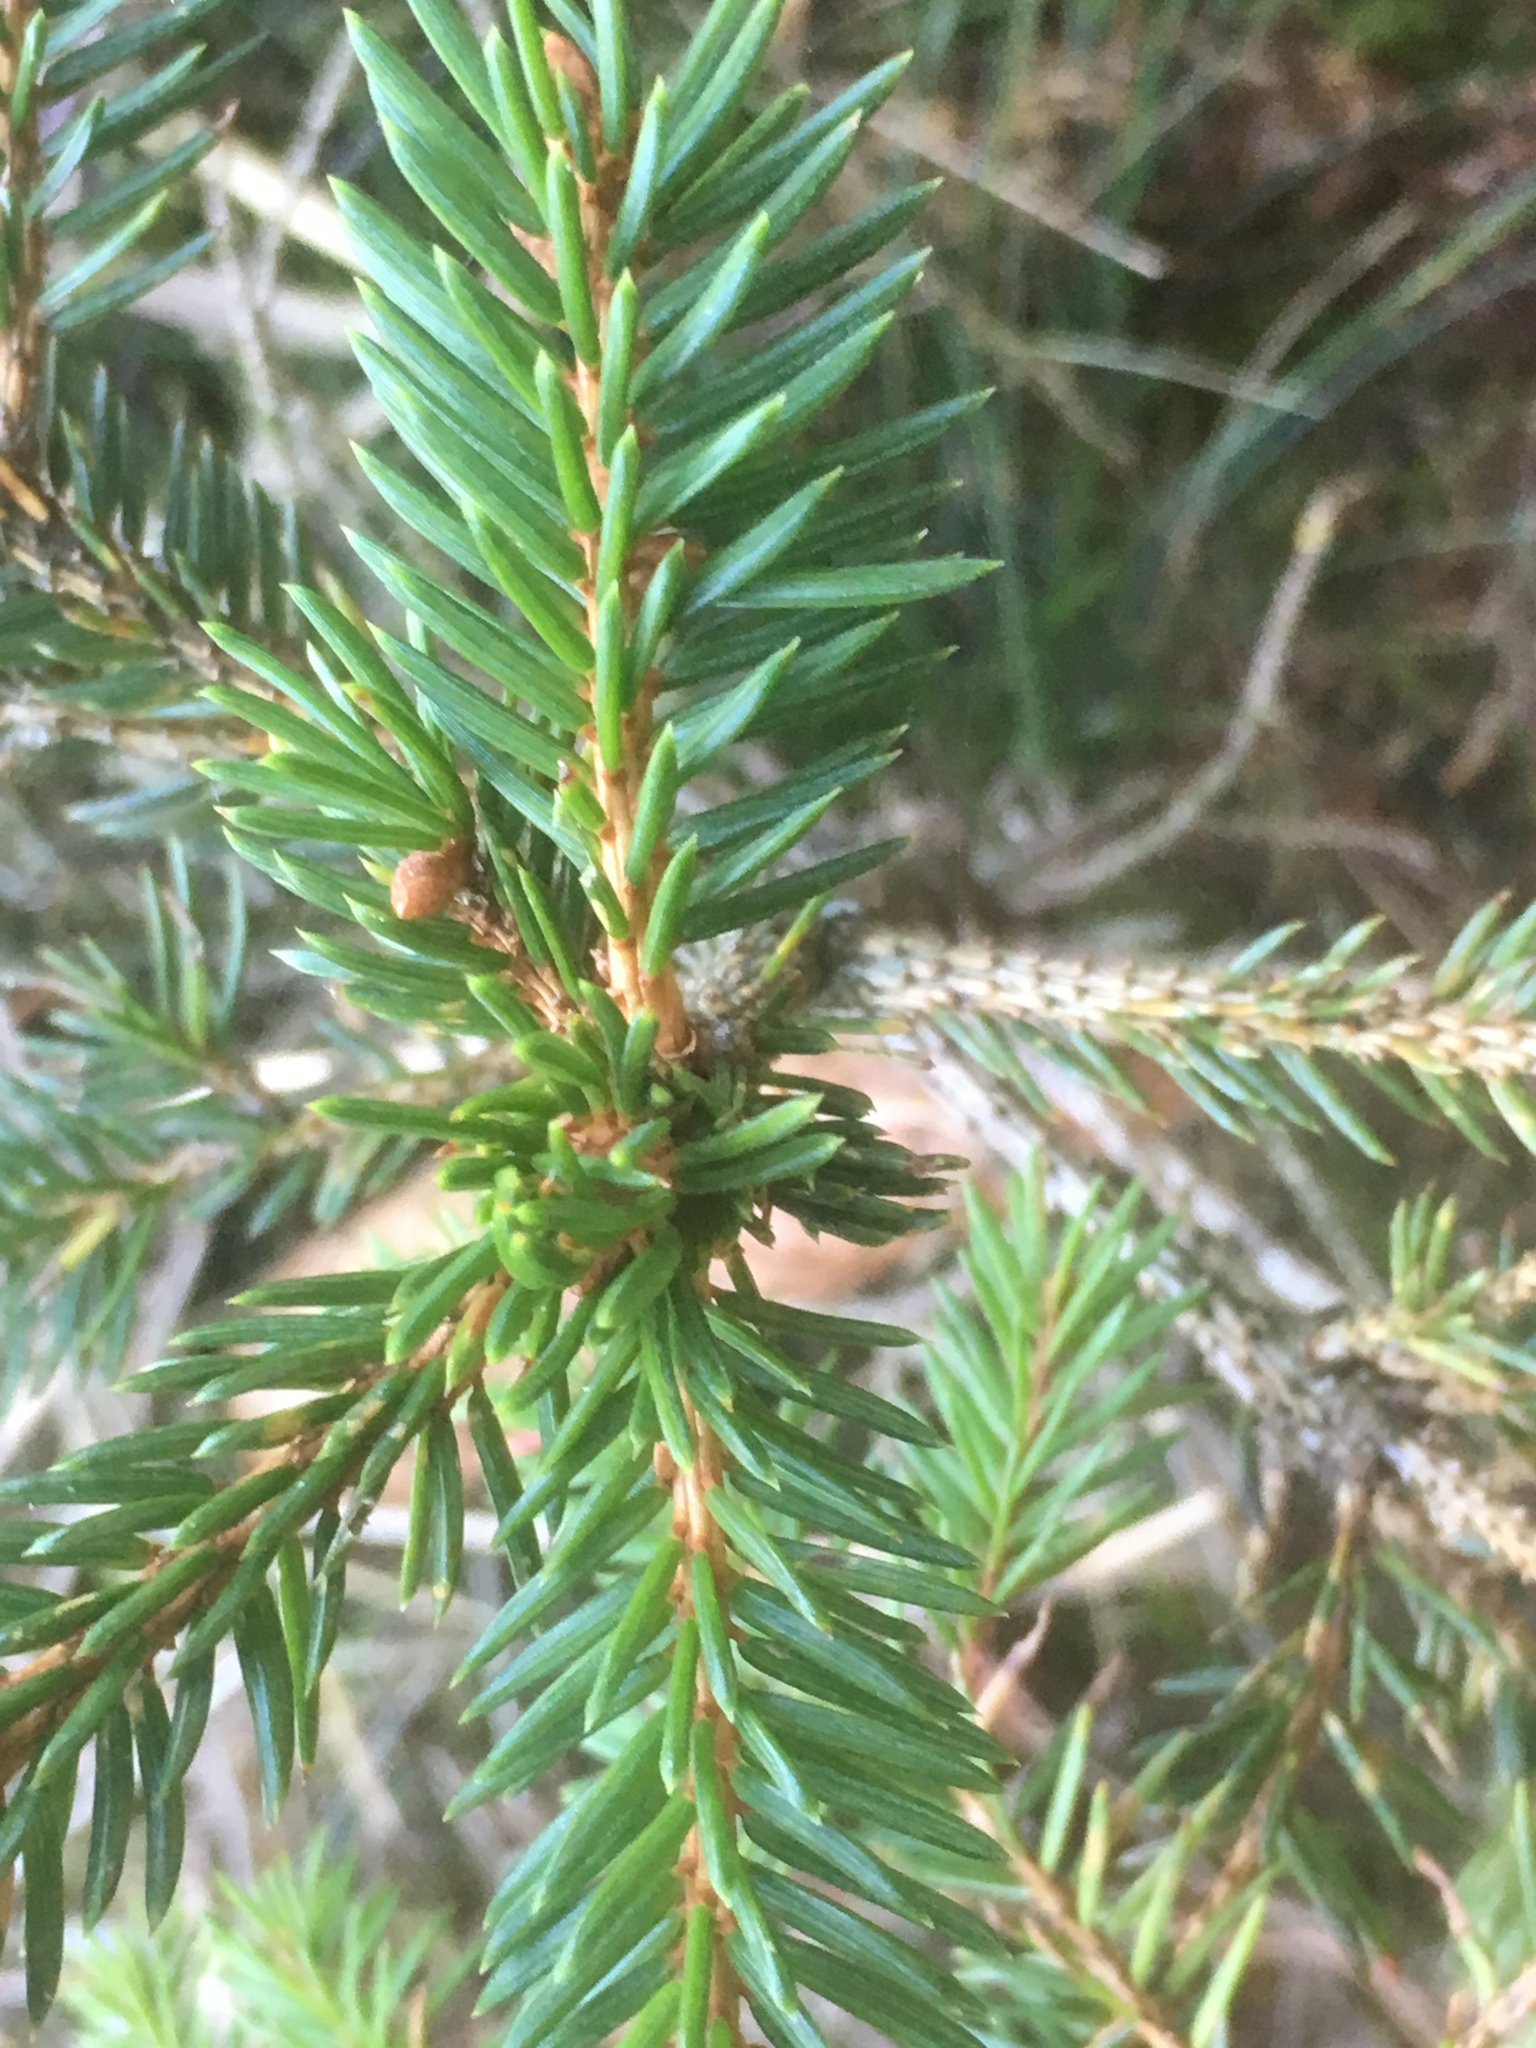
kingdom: Plantae
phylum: Tracheophyta
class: Pinopsida
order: Pinales
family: Pinaceae
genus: Picea
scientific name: Picea abies
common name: Norway spruce
